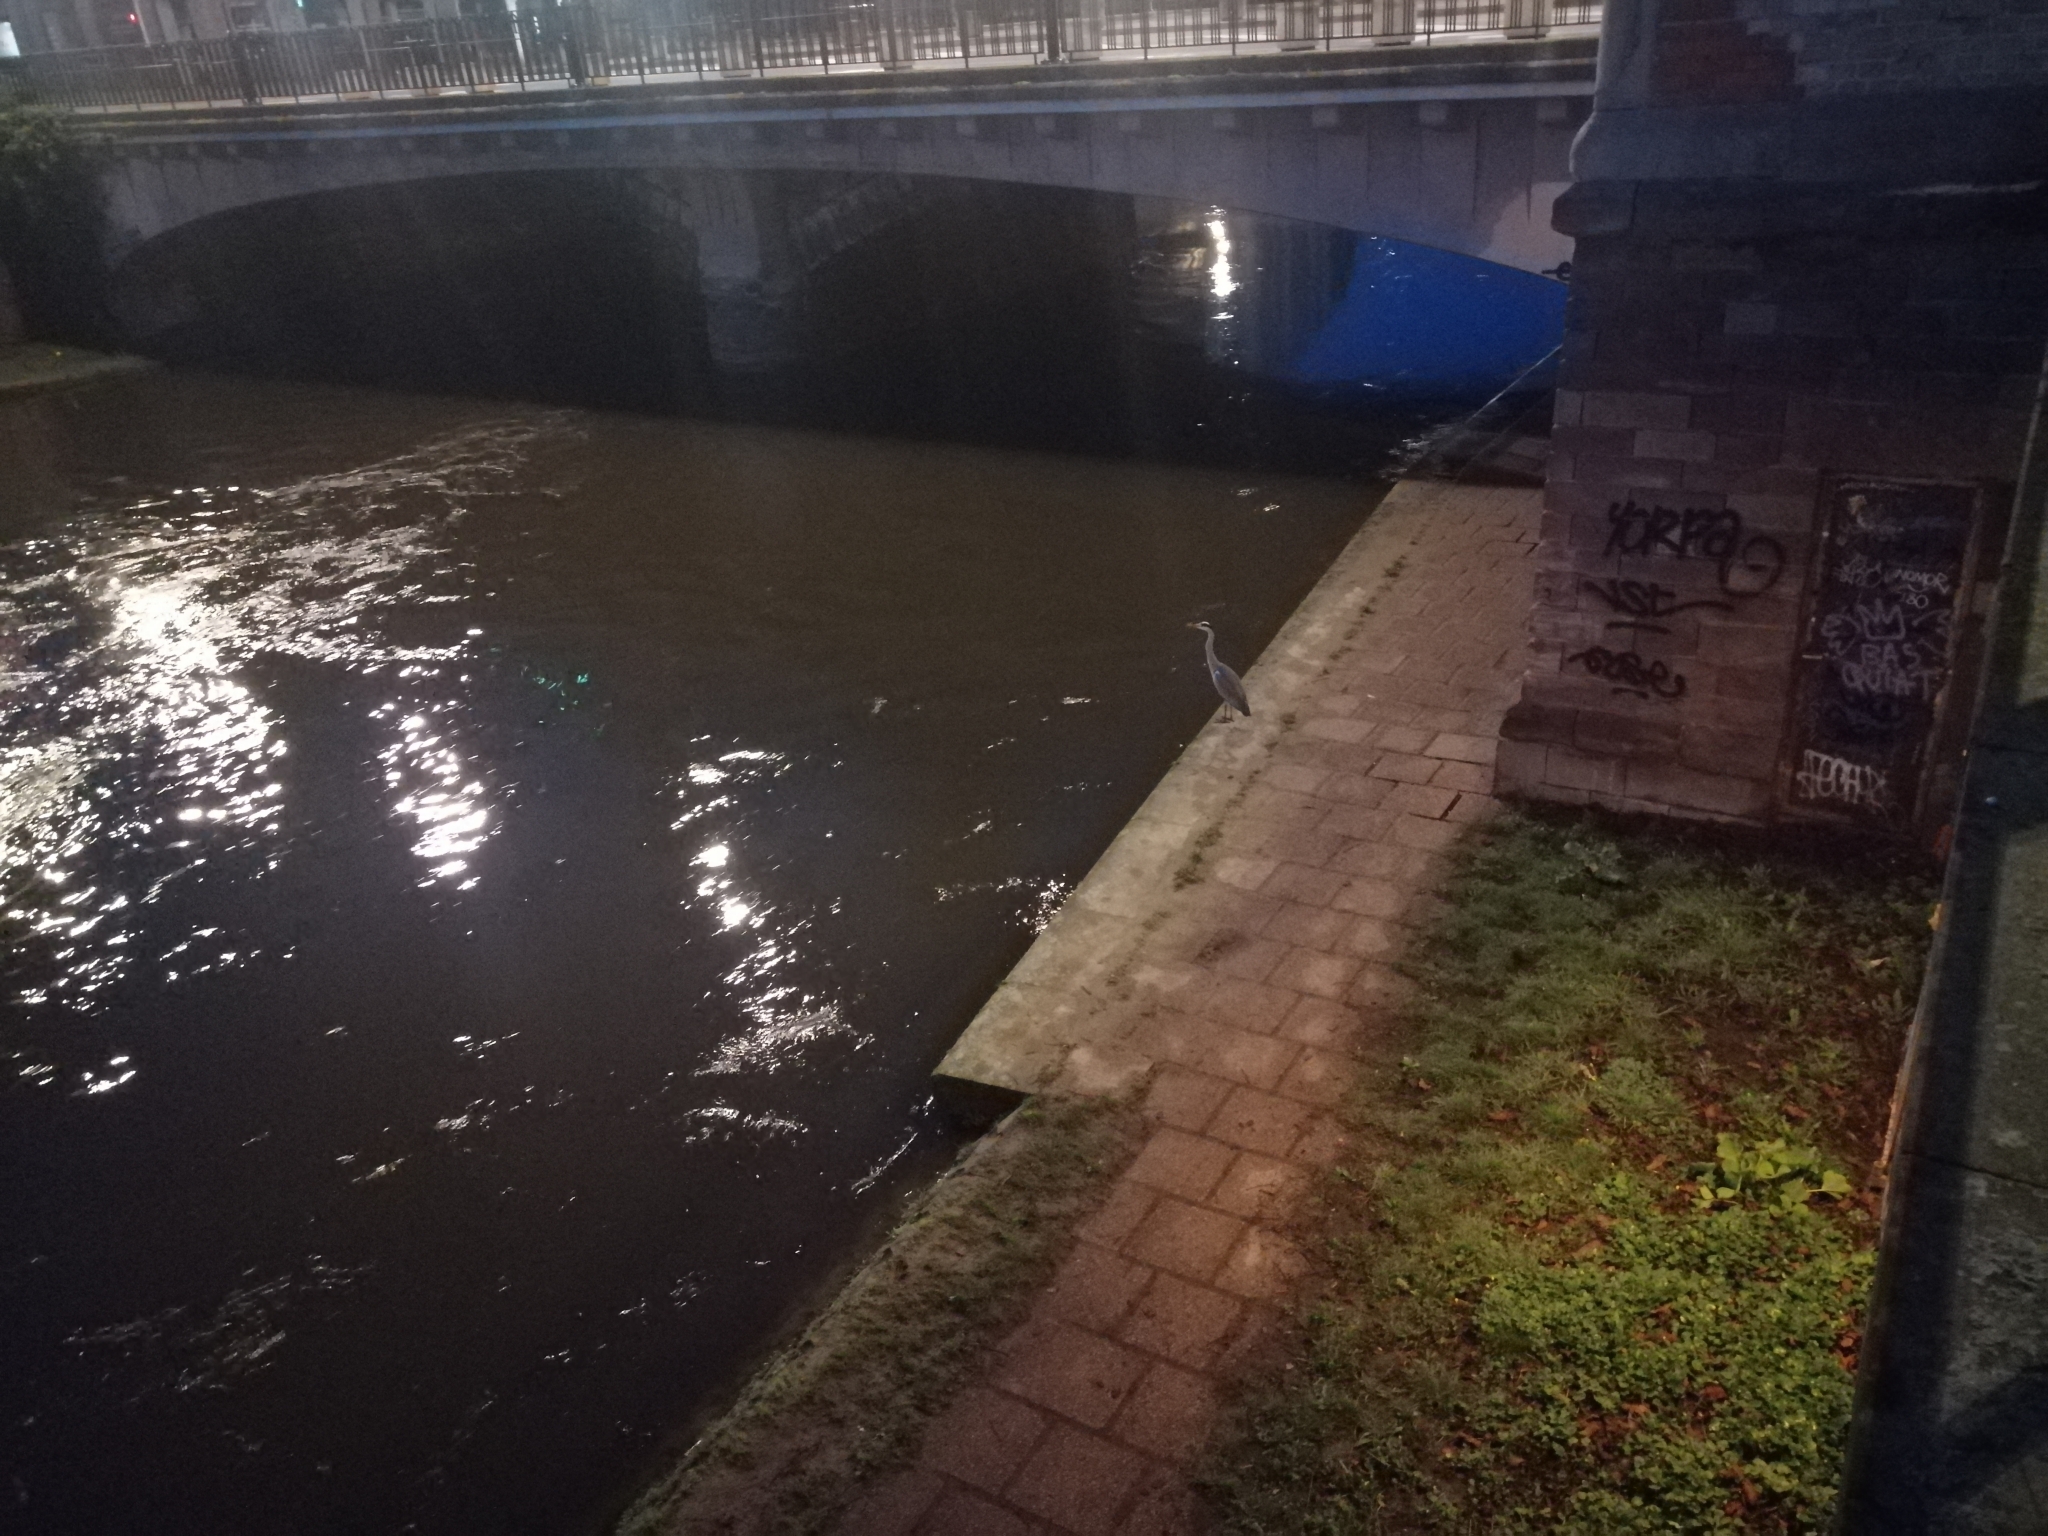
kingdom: Animalia
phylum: Chordata
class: Aves
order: Pelecaniformes
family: Ardeidae
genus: Ardea
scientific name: Ardea cinerea
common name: Grey heron
